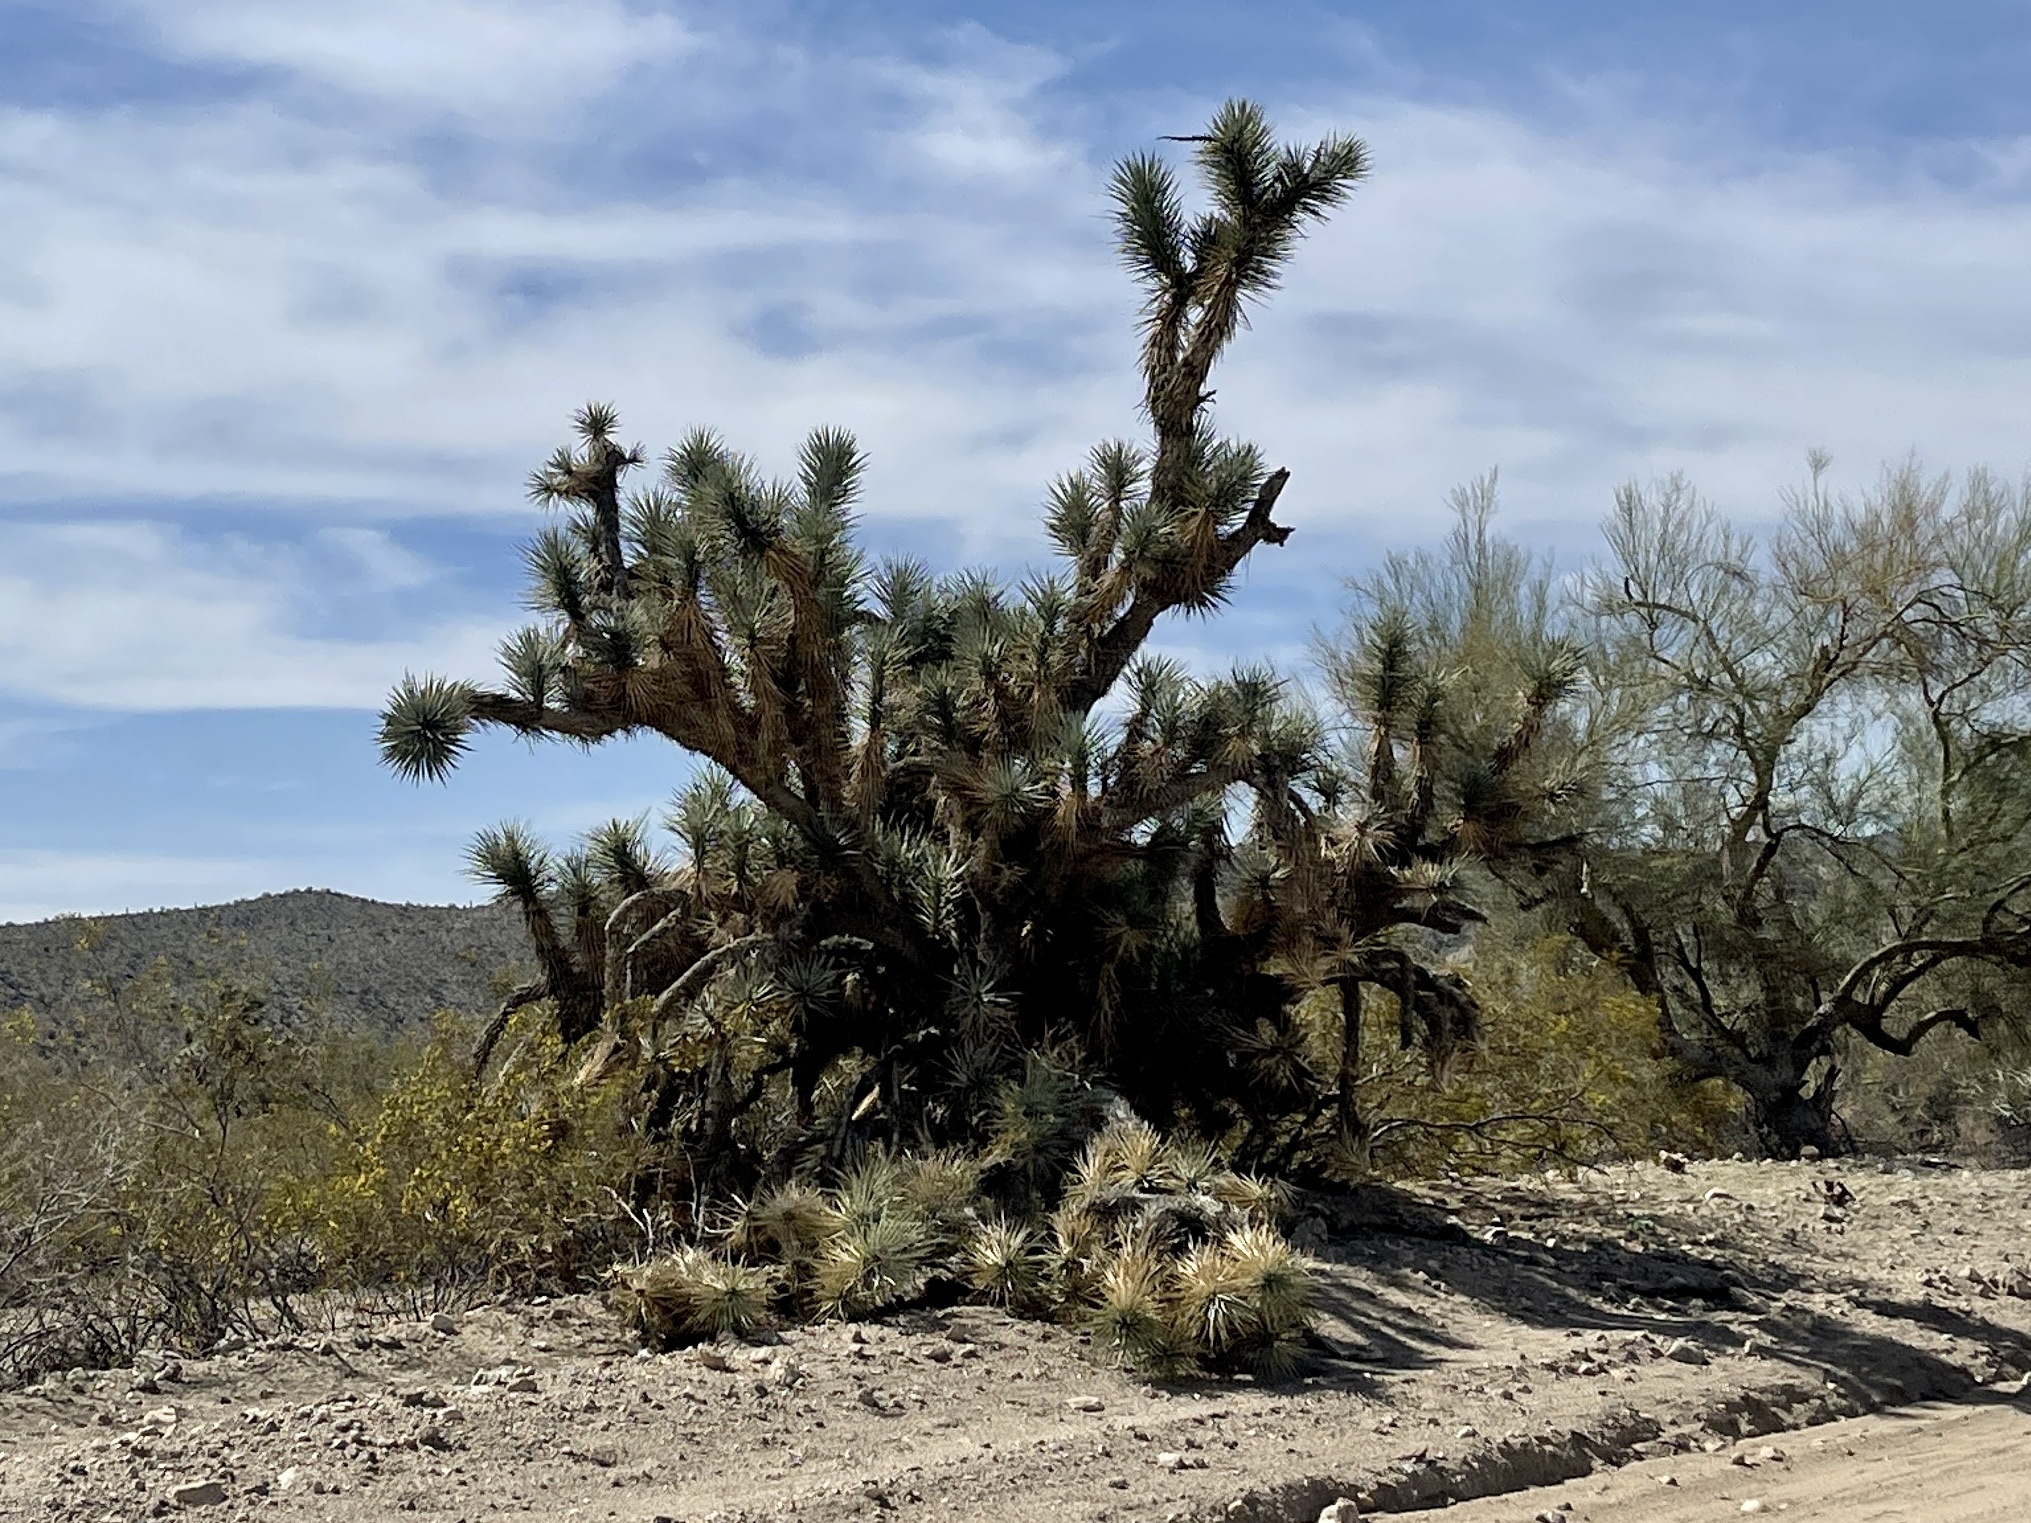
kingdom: Plantae
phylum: Tracheophyta
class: Liliopsida
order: Asparagales
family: Asparagaceae
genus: Yucca
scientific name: Yucca brevifolia
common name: Joshua tree
